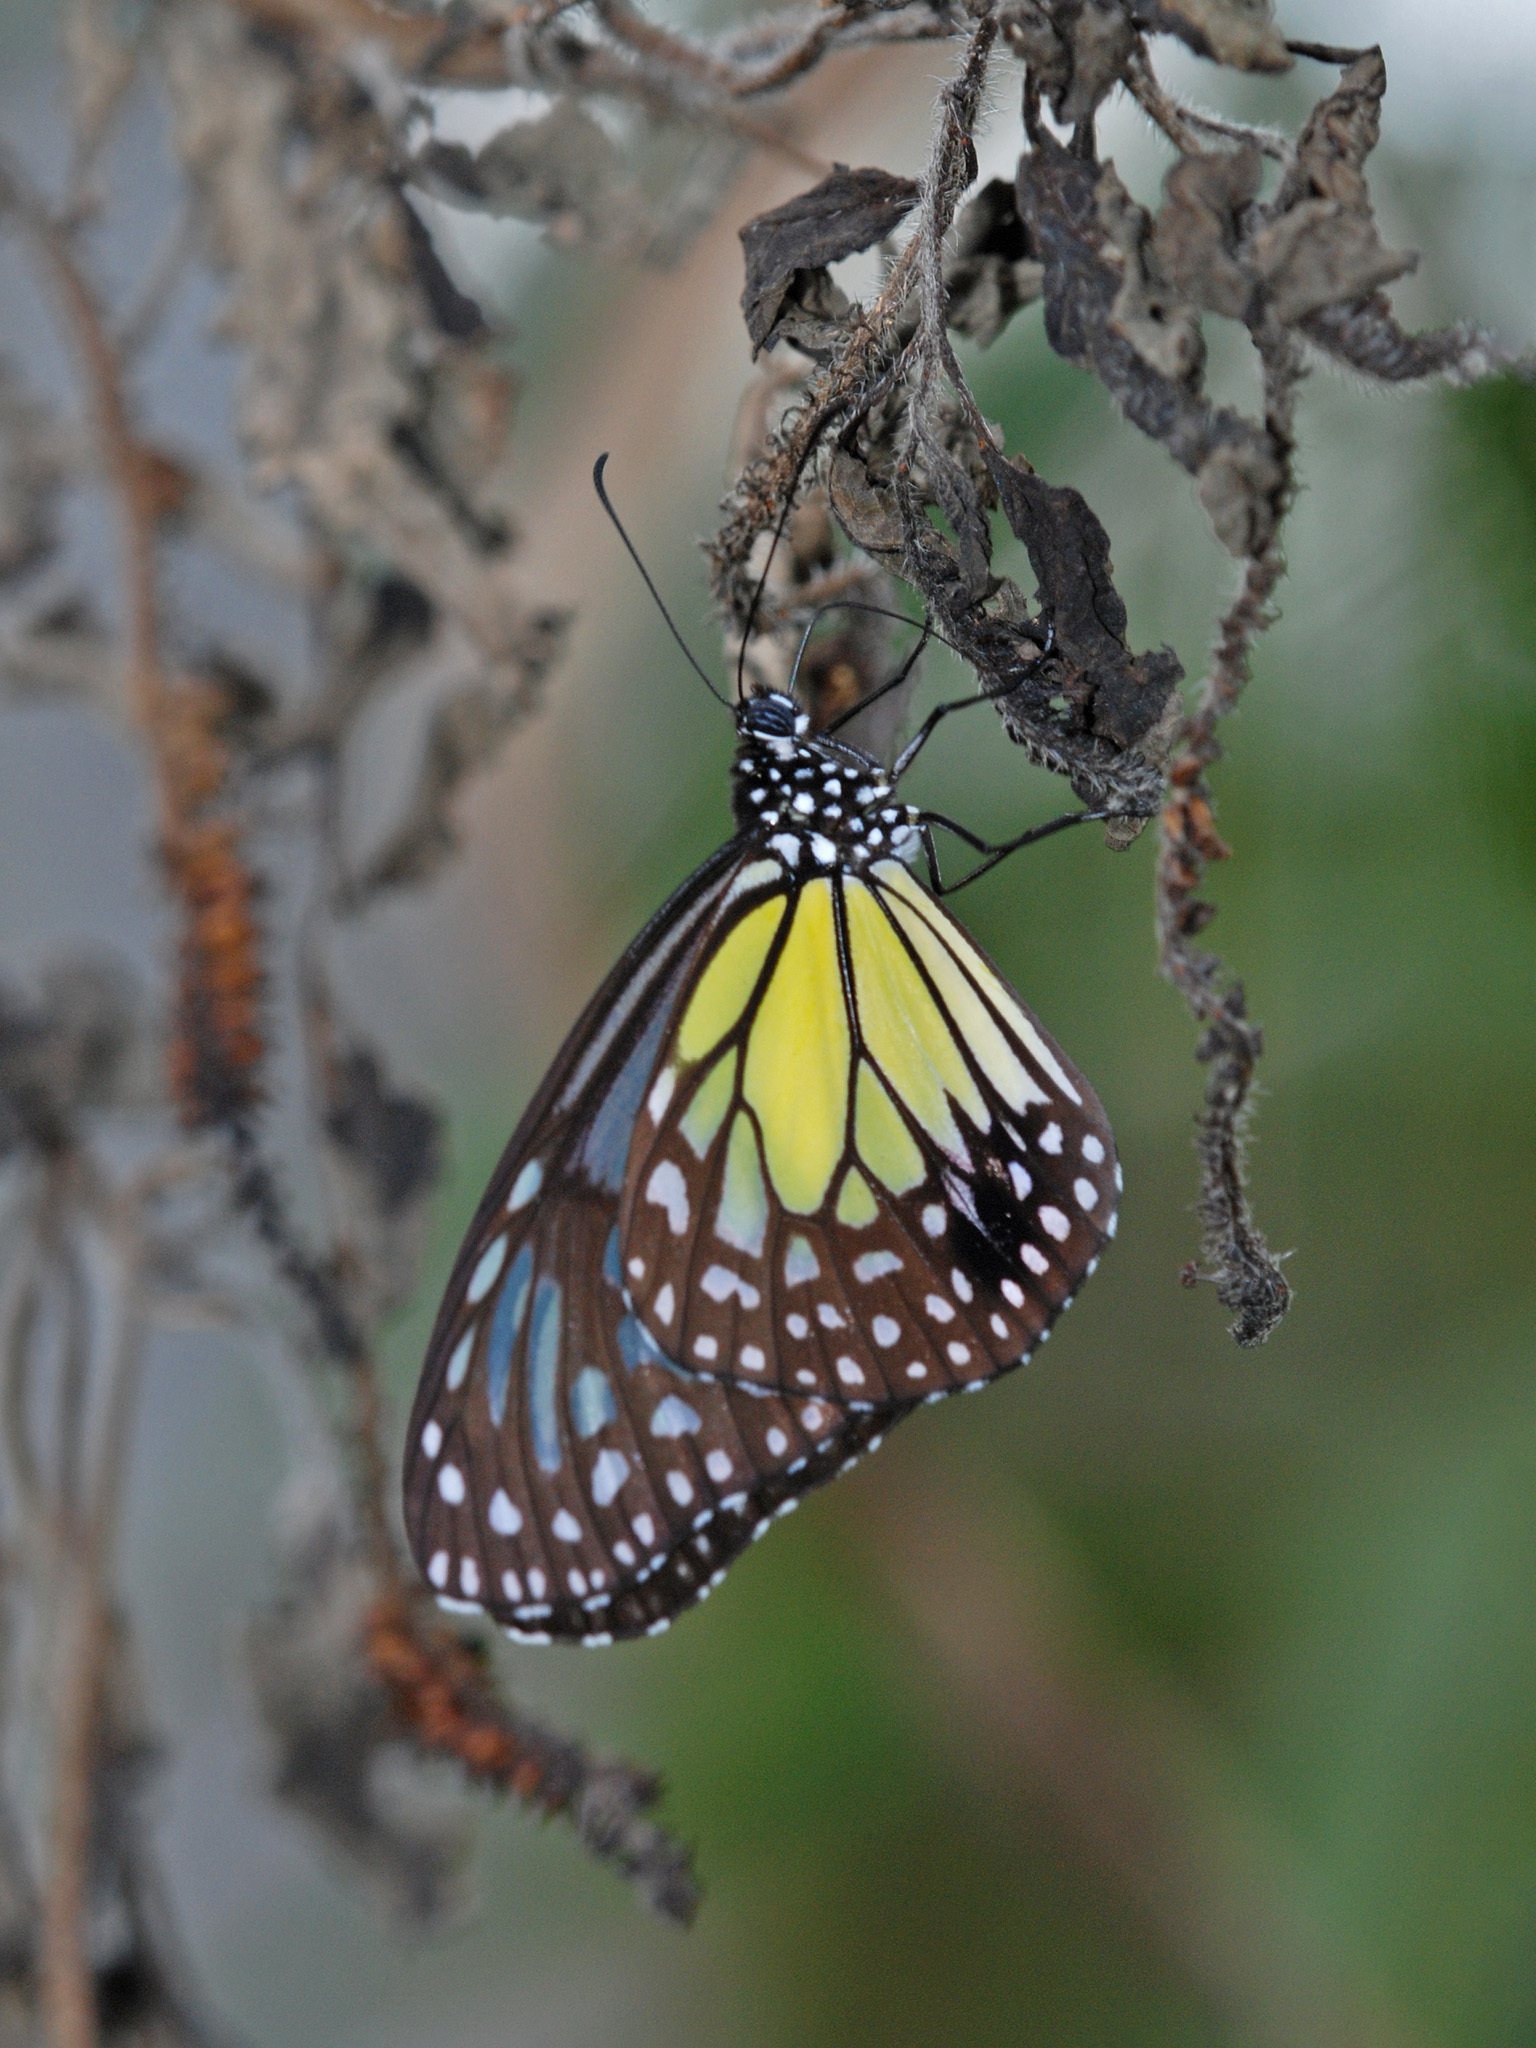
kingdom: Animalia
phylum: Arthropoda
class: Insecta
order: Lepidoptera
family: Nymphalidae
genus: Parantica
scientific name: Parantica aspasia
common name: Yellow glassy tiger
